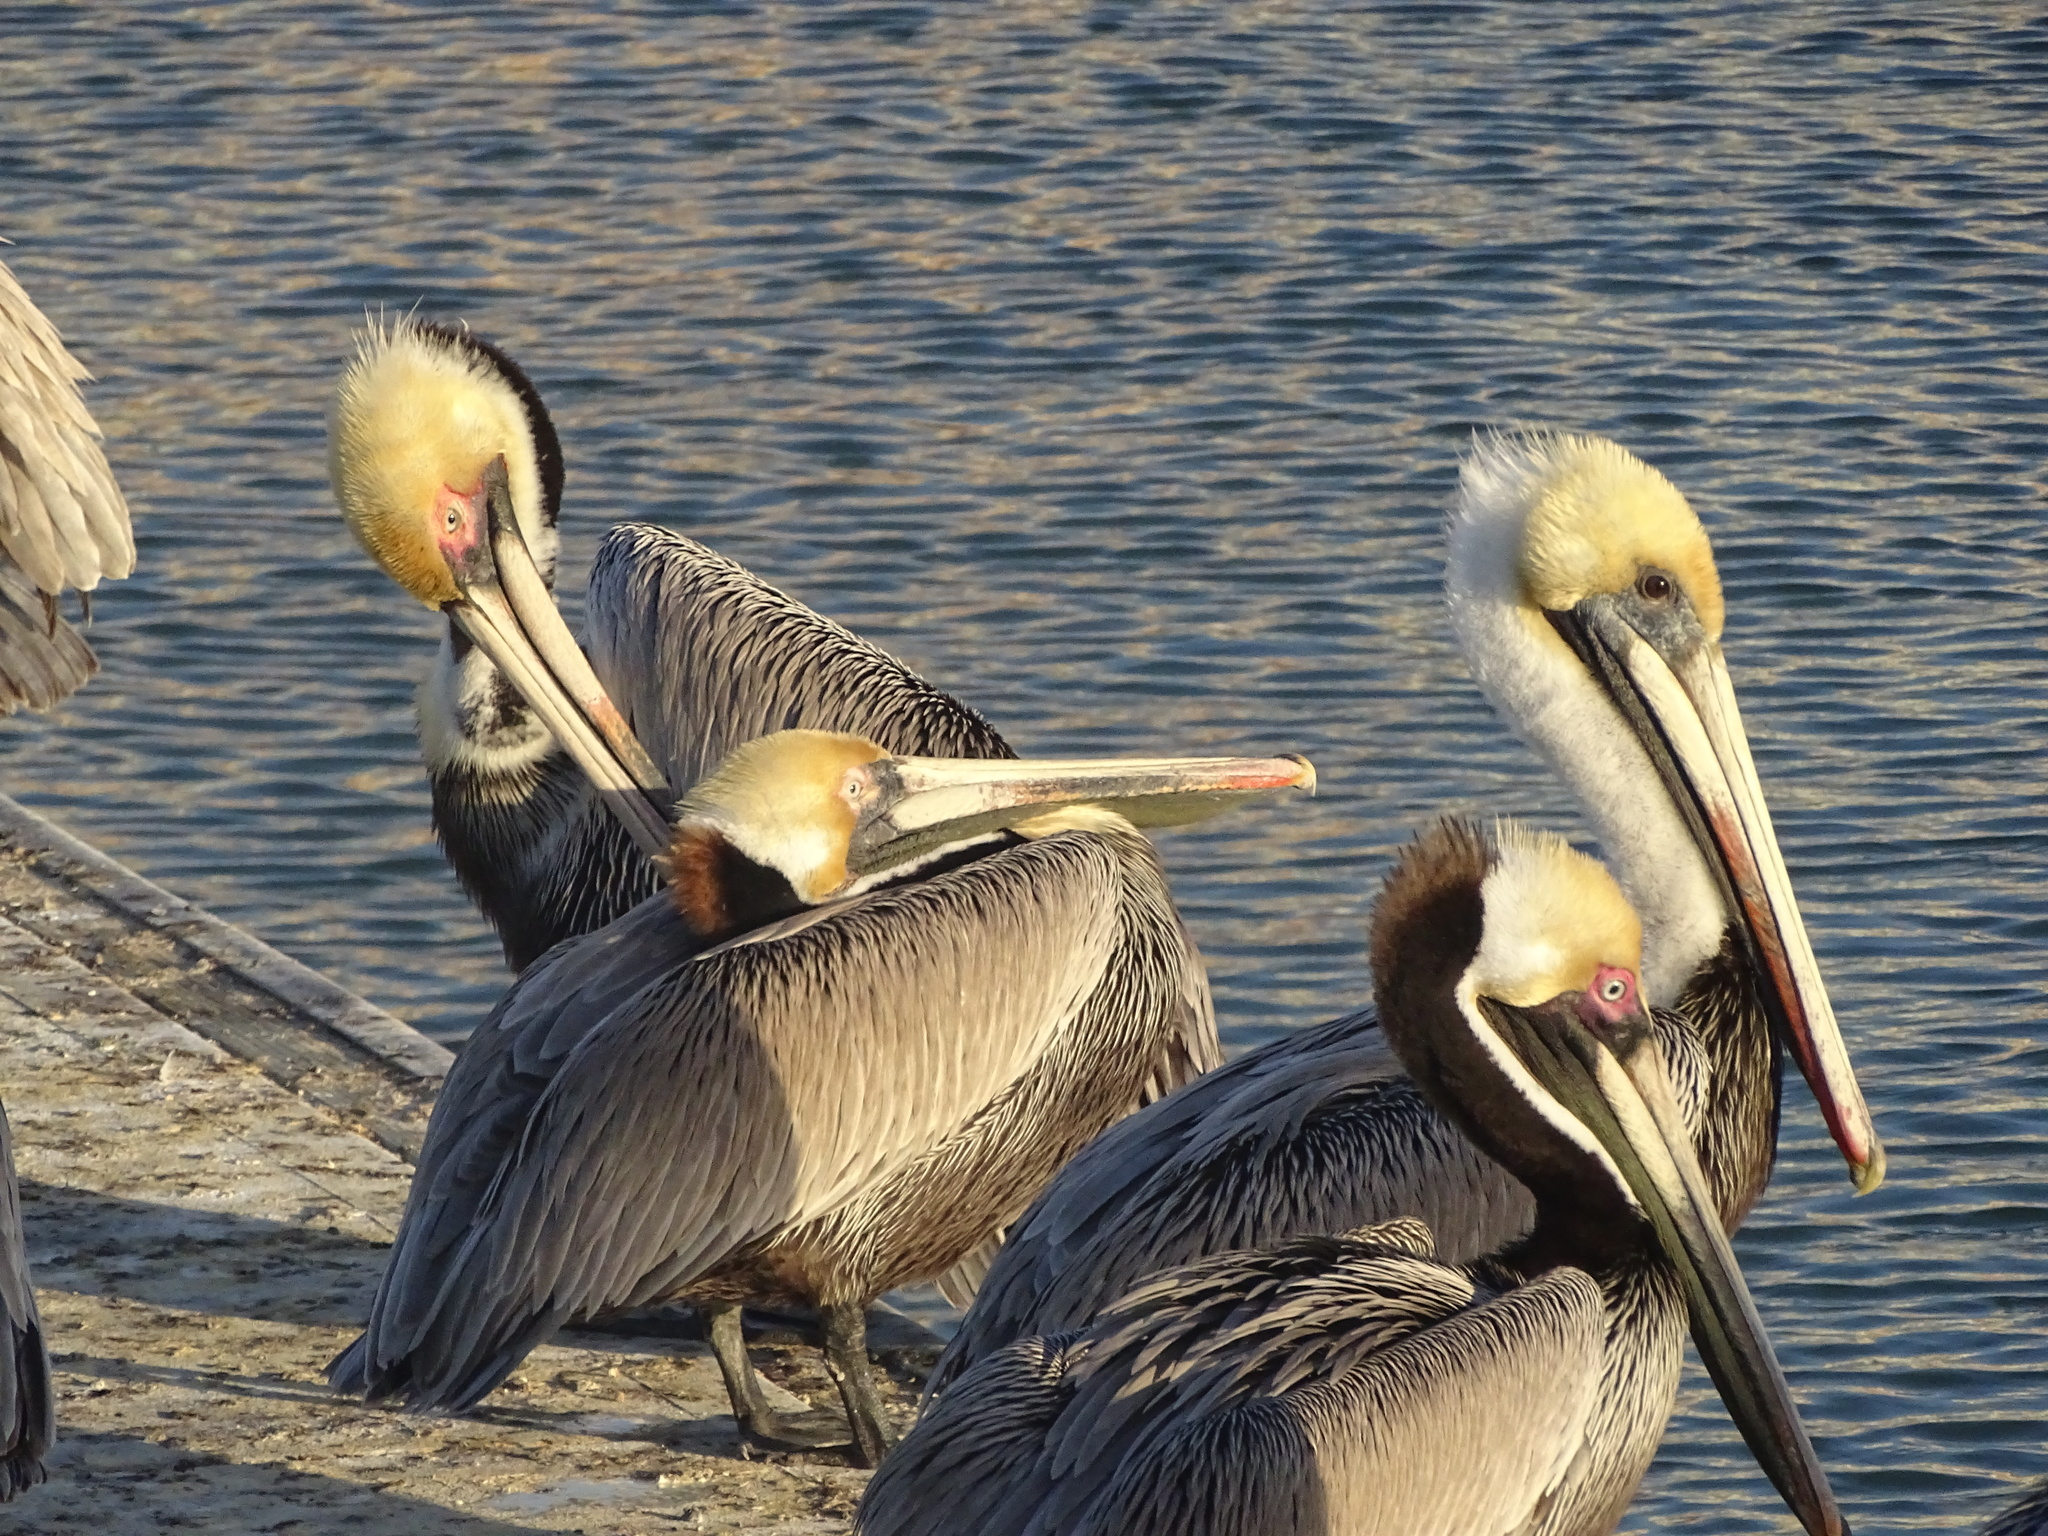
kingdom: Animalia
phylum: Chordata
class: Aves
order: Pelecaniformes
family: Pelecanidae
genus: Pelecanus
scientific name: Pelecanus occidentalis
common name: Brown pelican
